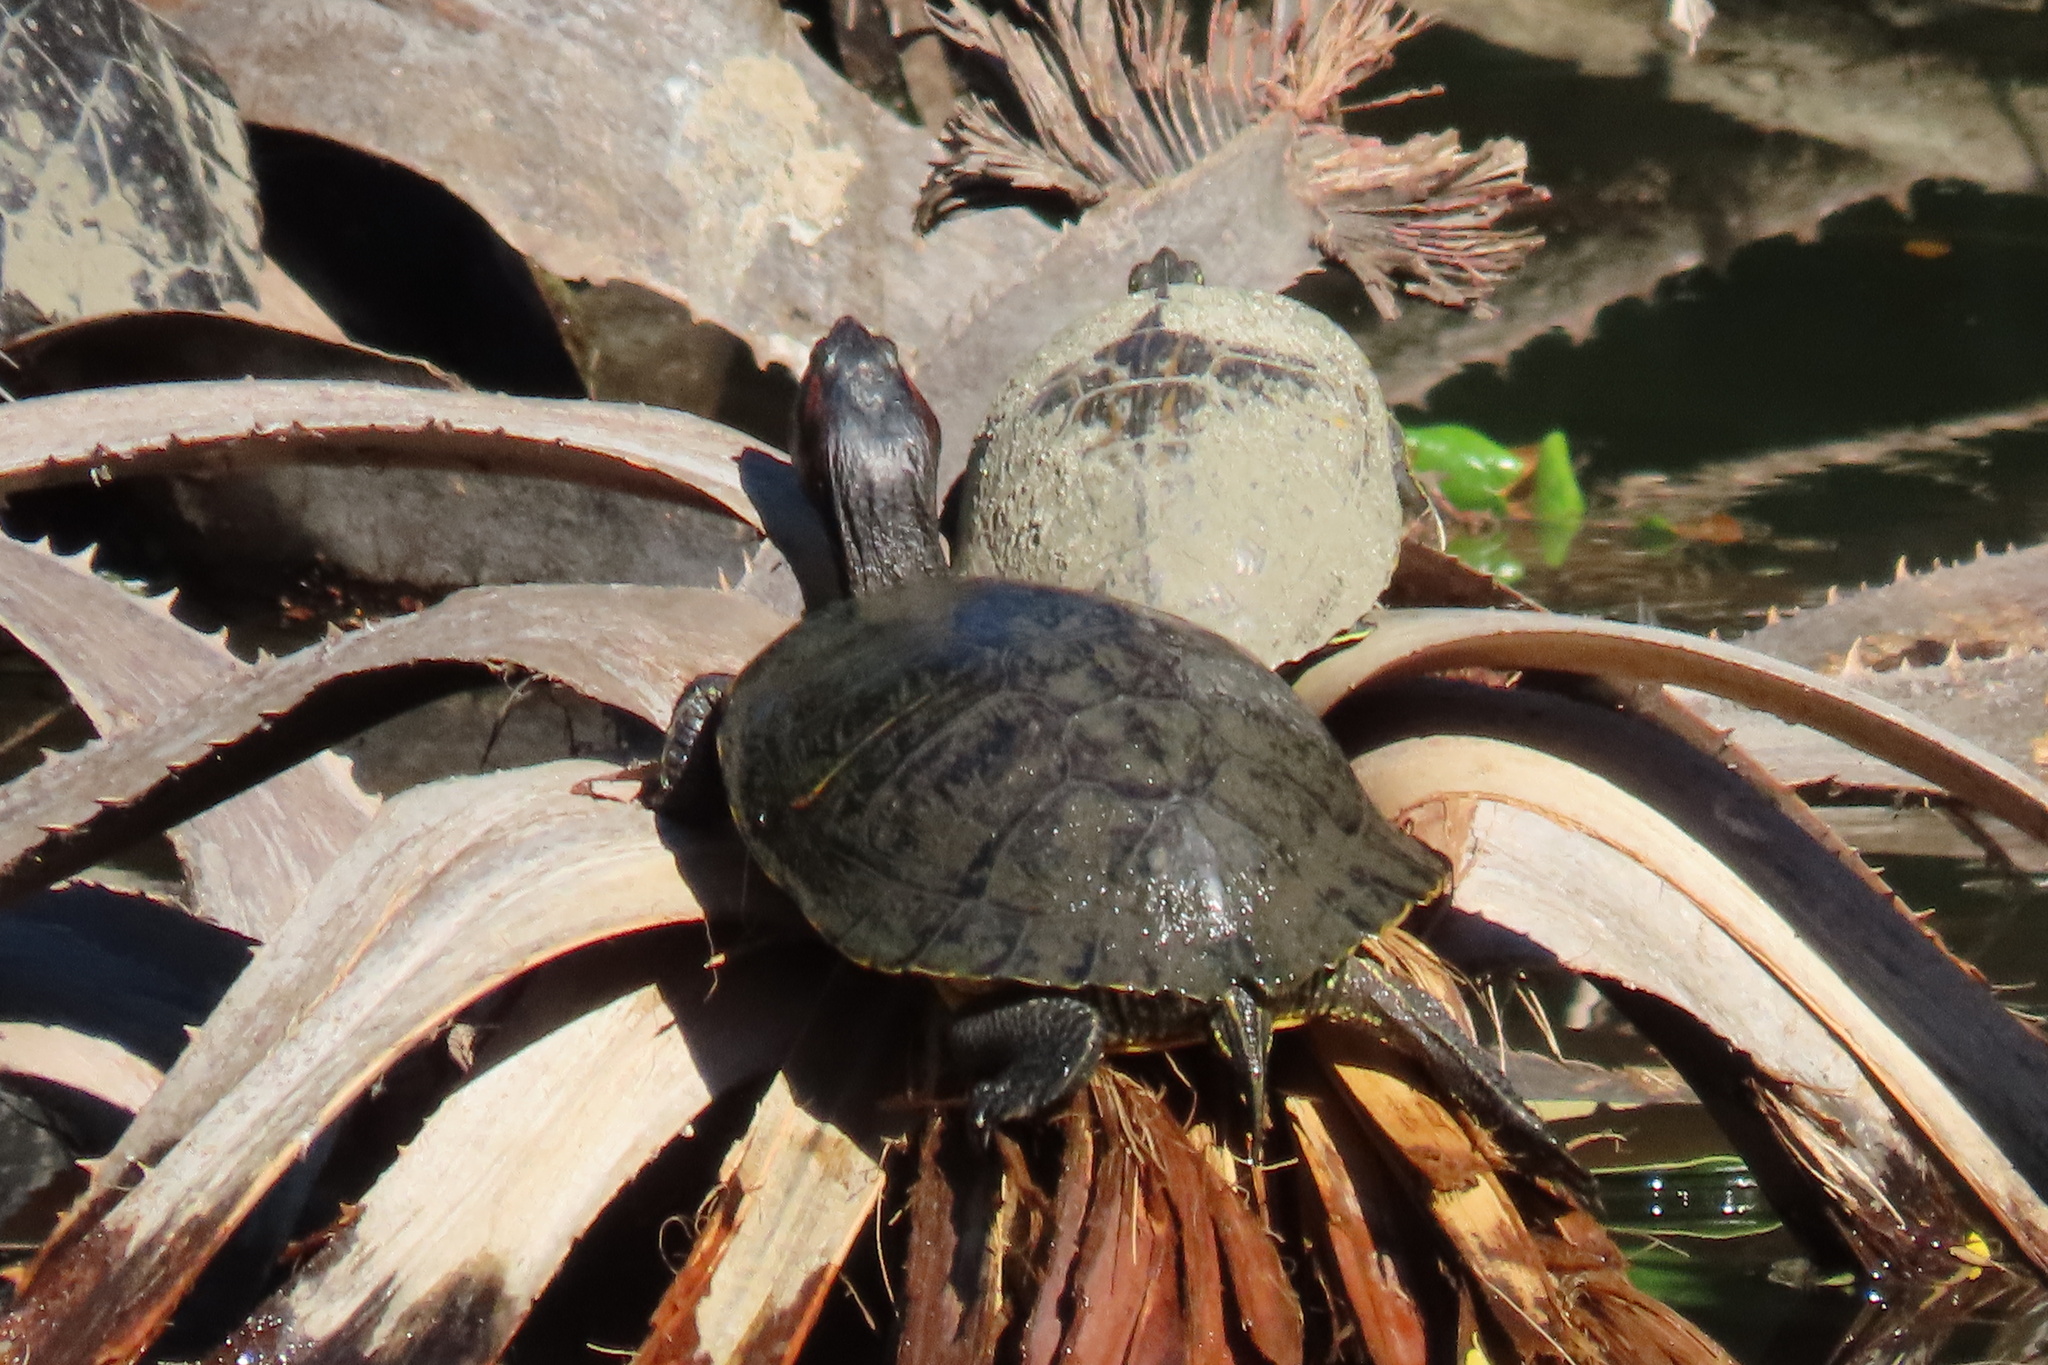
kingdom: Animalia
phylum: Chordata
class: Testudines
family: Emydidae
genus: Trachemys
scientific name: Trachemys scripta
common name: Slider
